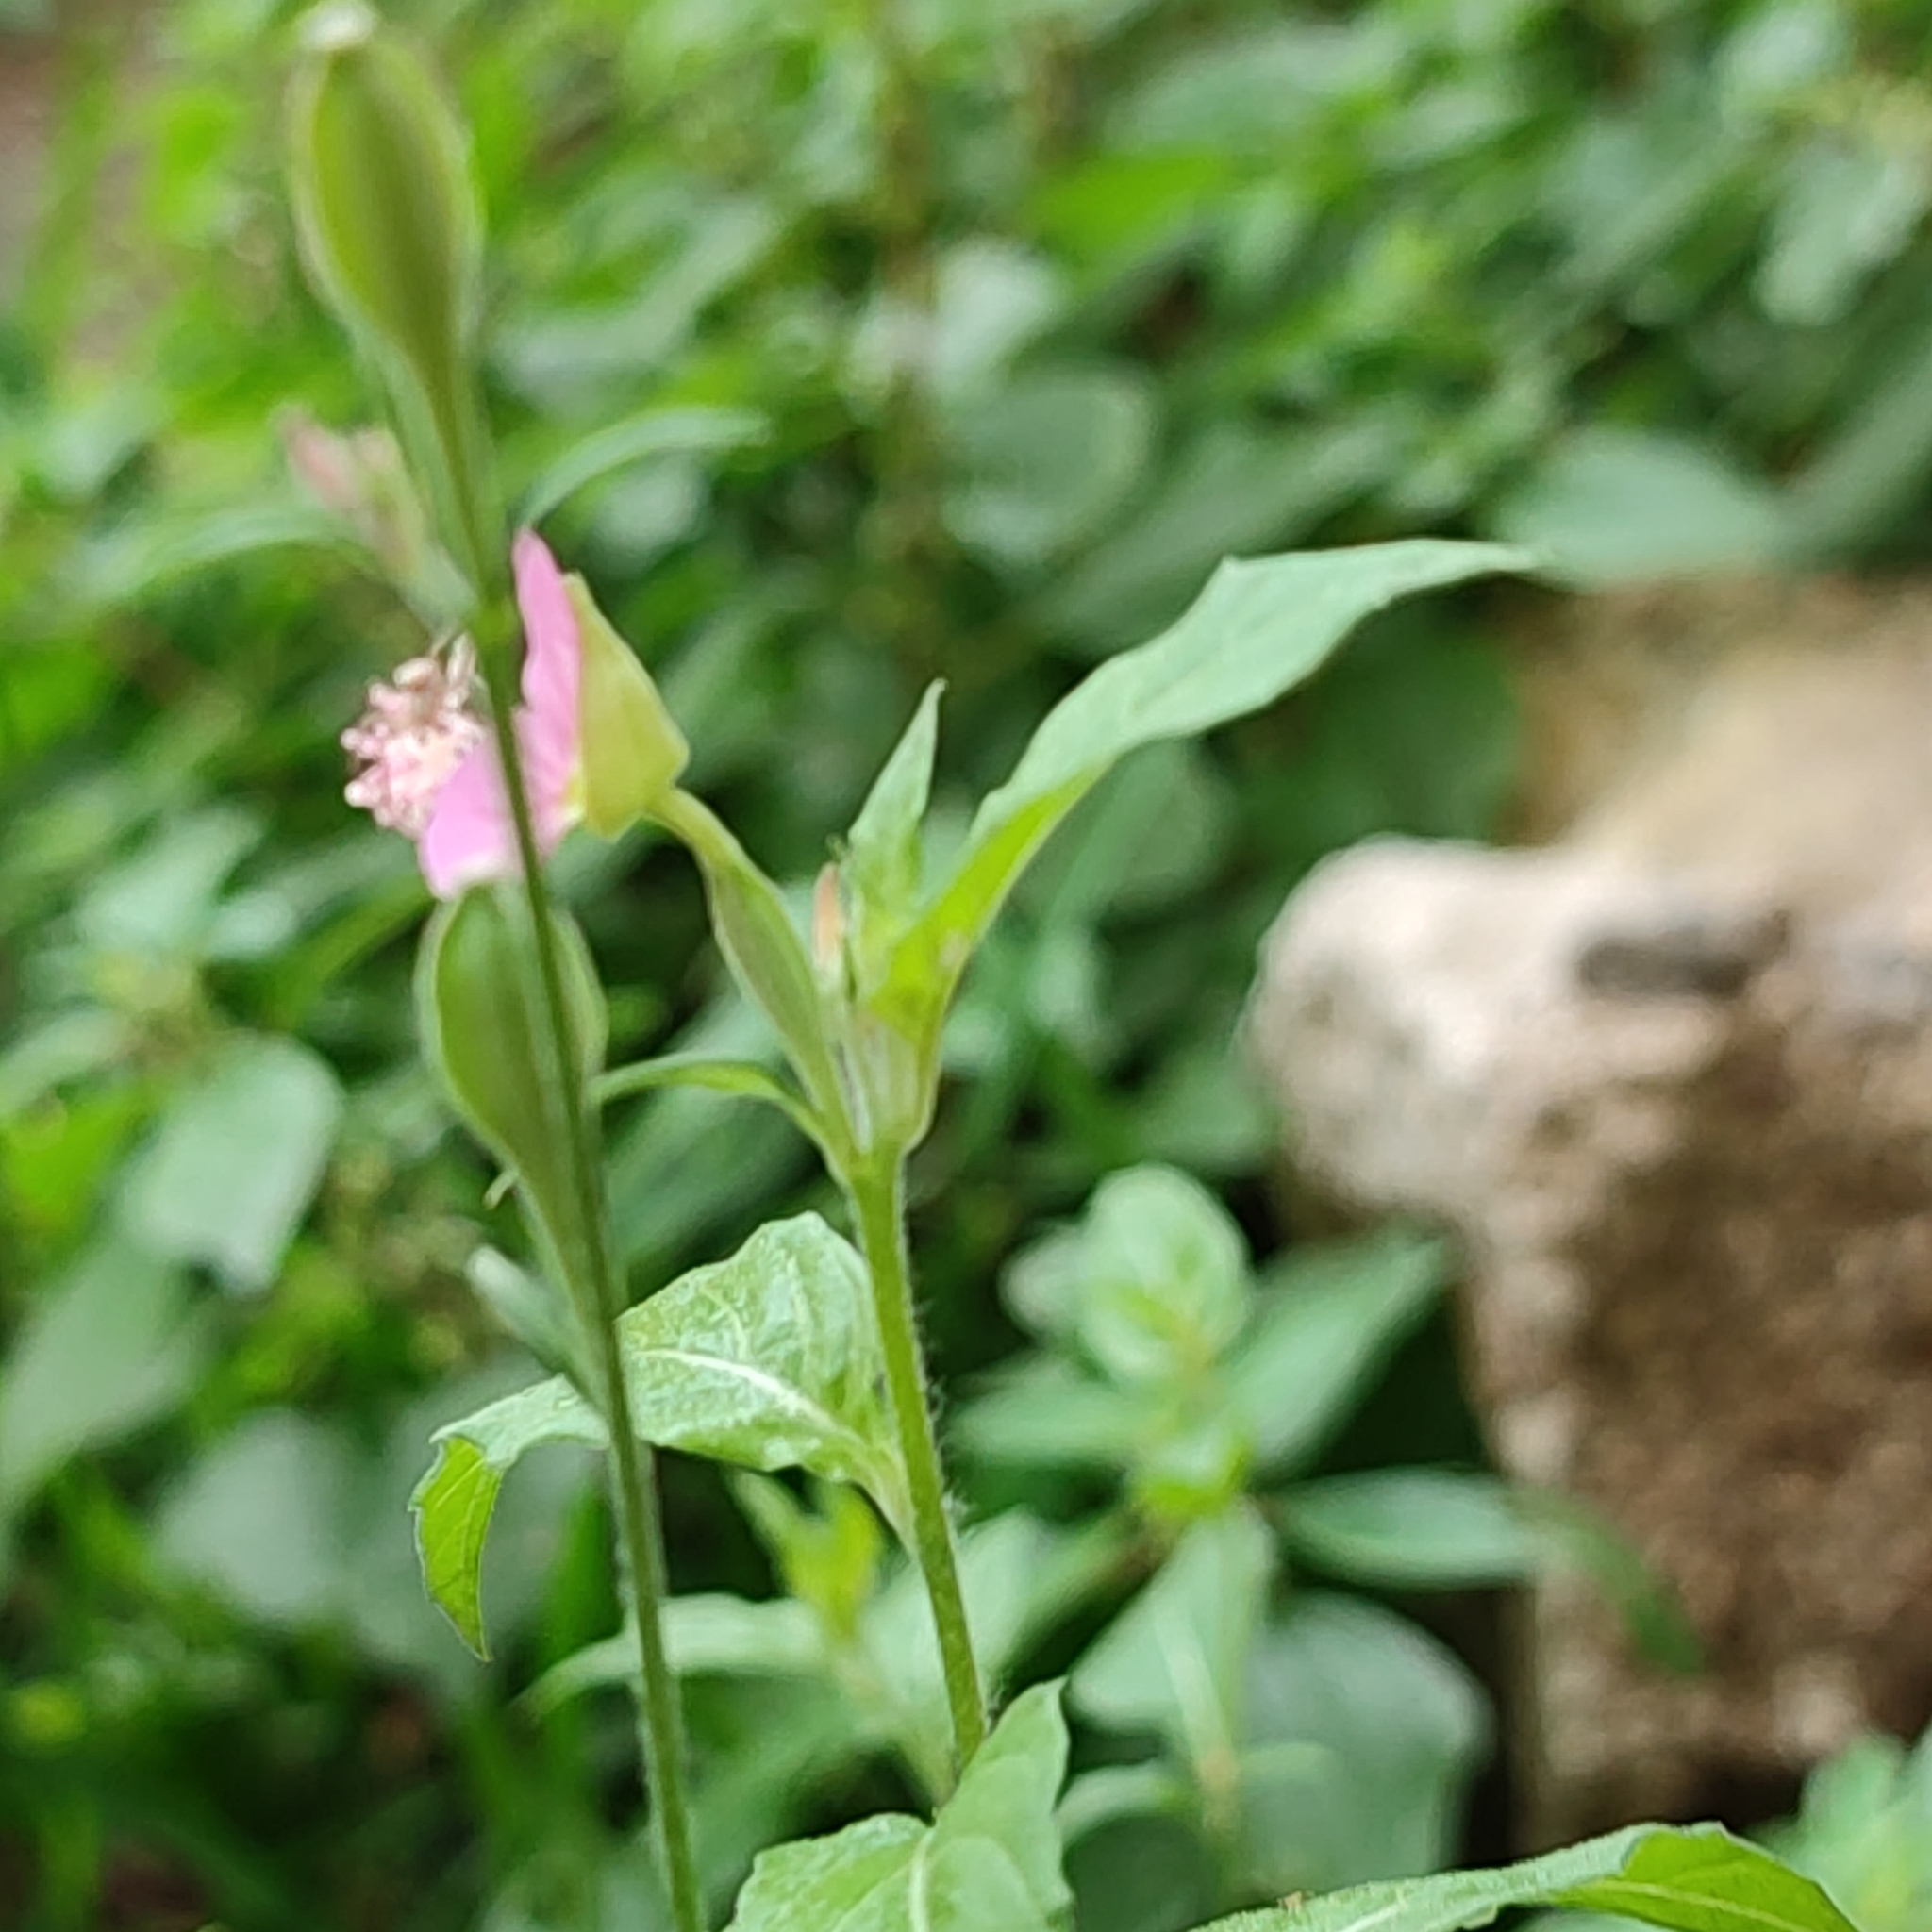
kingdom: Plantae
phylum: Tracheophyta
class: Magnoliopsida
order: Myrtales
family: Onagraceae
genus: Oenothera
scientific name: Oenothera rosea
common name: Rosy evening-primrose
